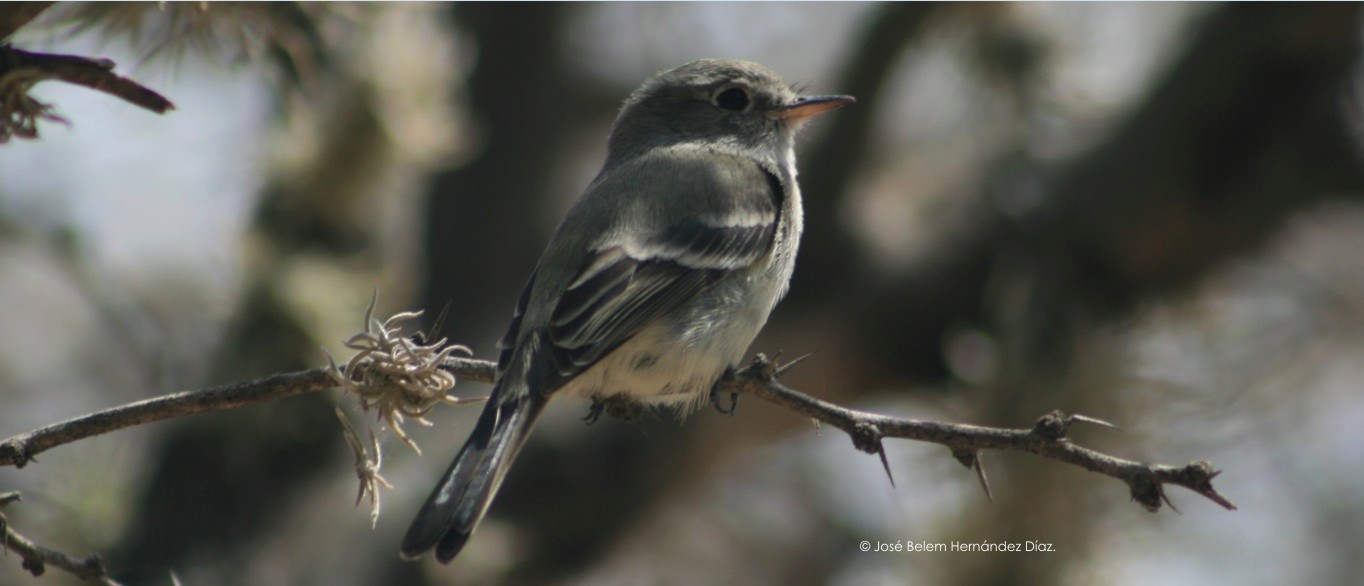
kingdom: Animalia
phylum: Chordata
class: Aves
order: Passeriformes
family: Tyrannidae
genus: Empidonax
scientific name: Empidonax wrightii
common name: Gray flycatcher
